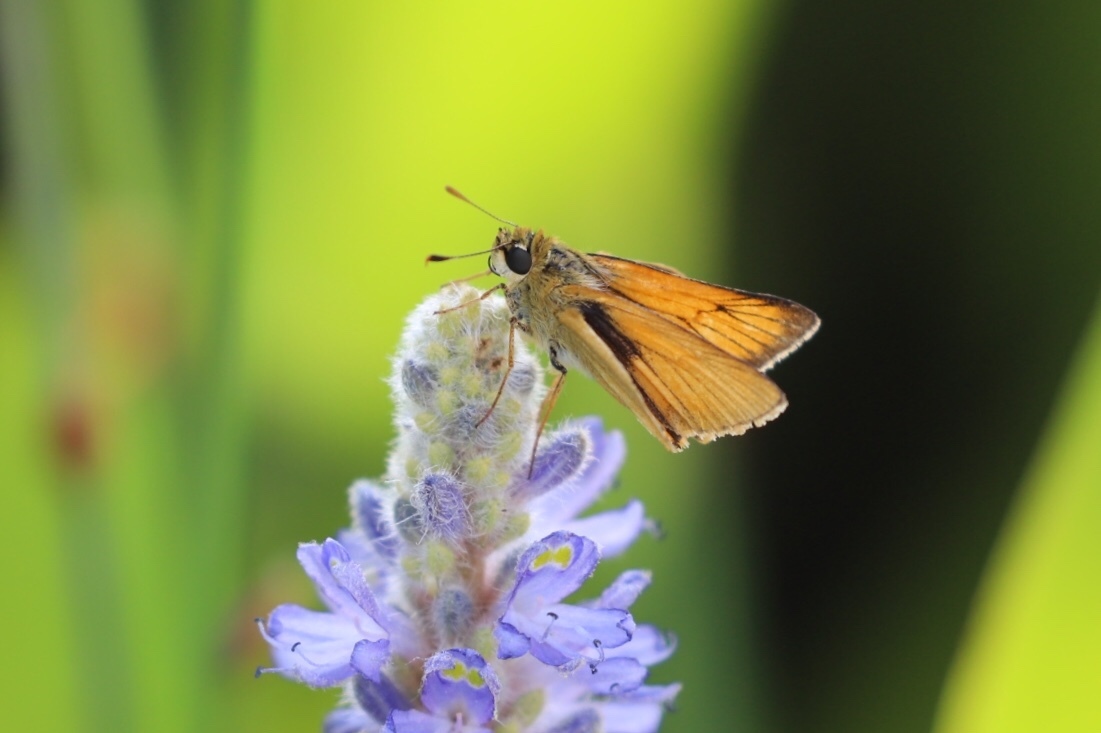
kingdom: Animalia
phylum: Arthropoda
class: Insecta
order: Lepidoptera
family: Hesperiidae
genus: Atrytone
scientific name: Atrytone delaware
